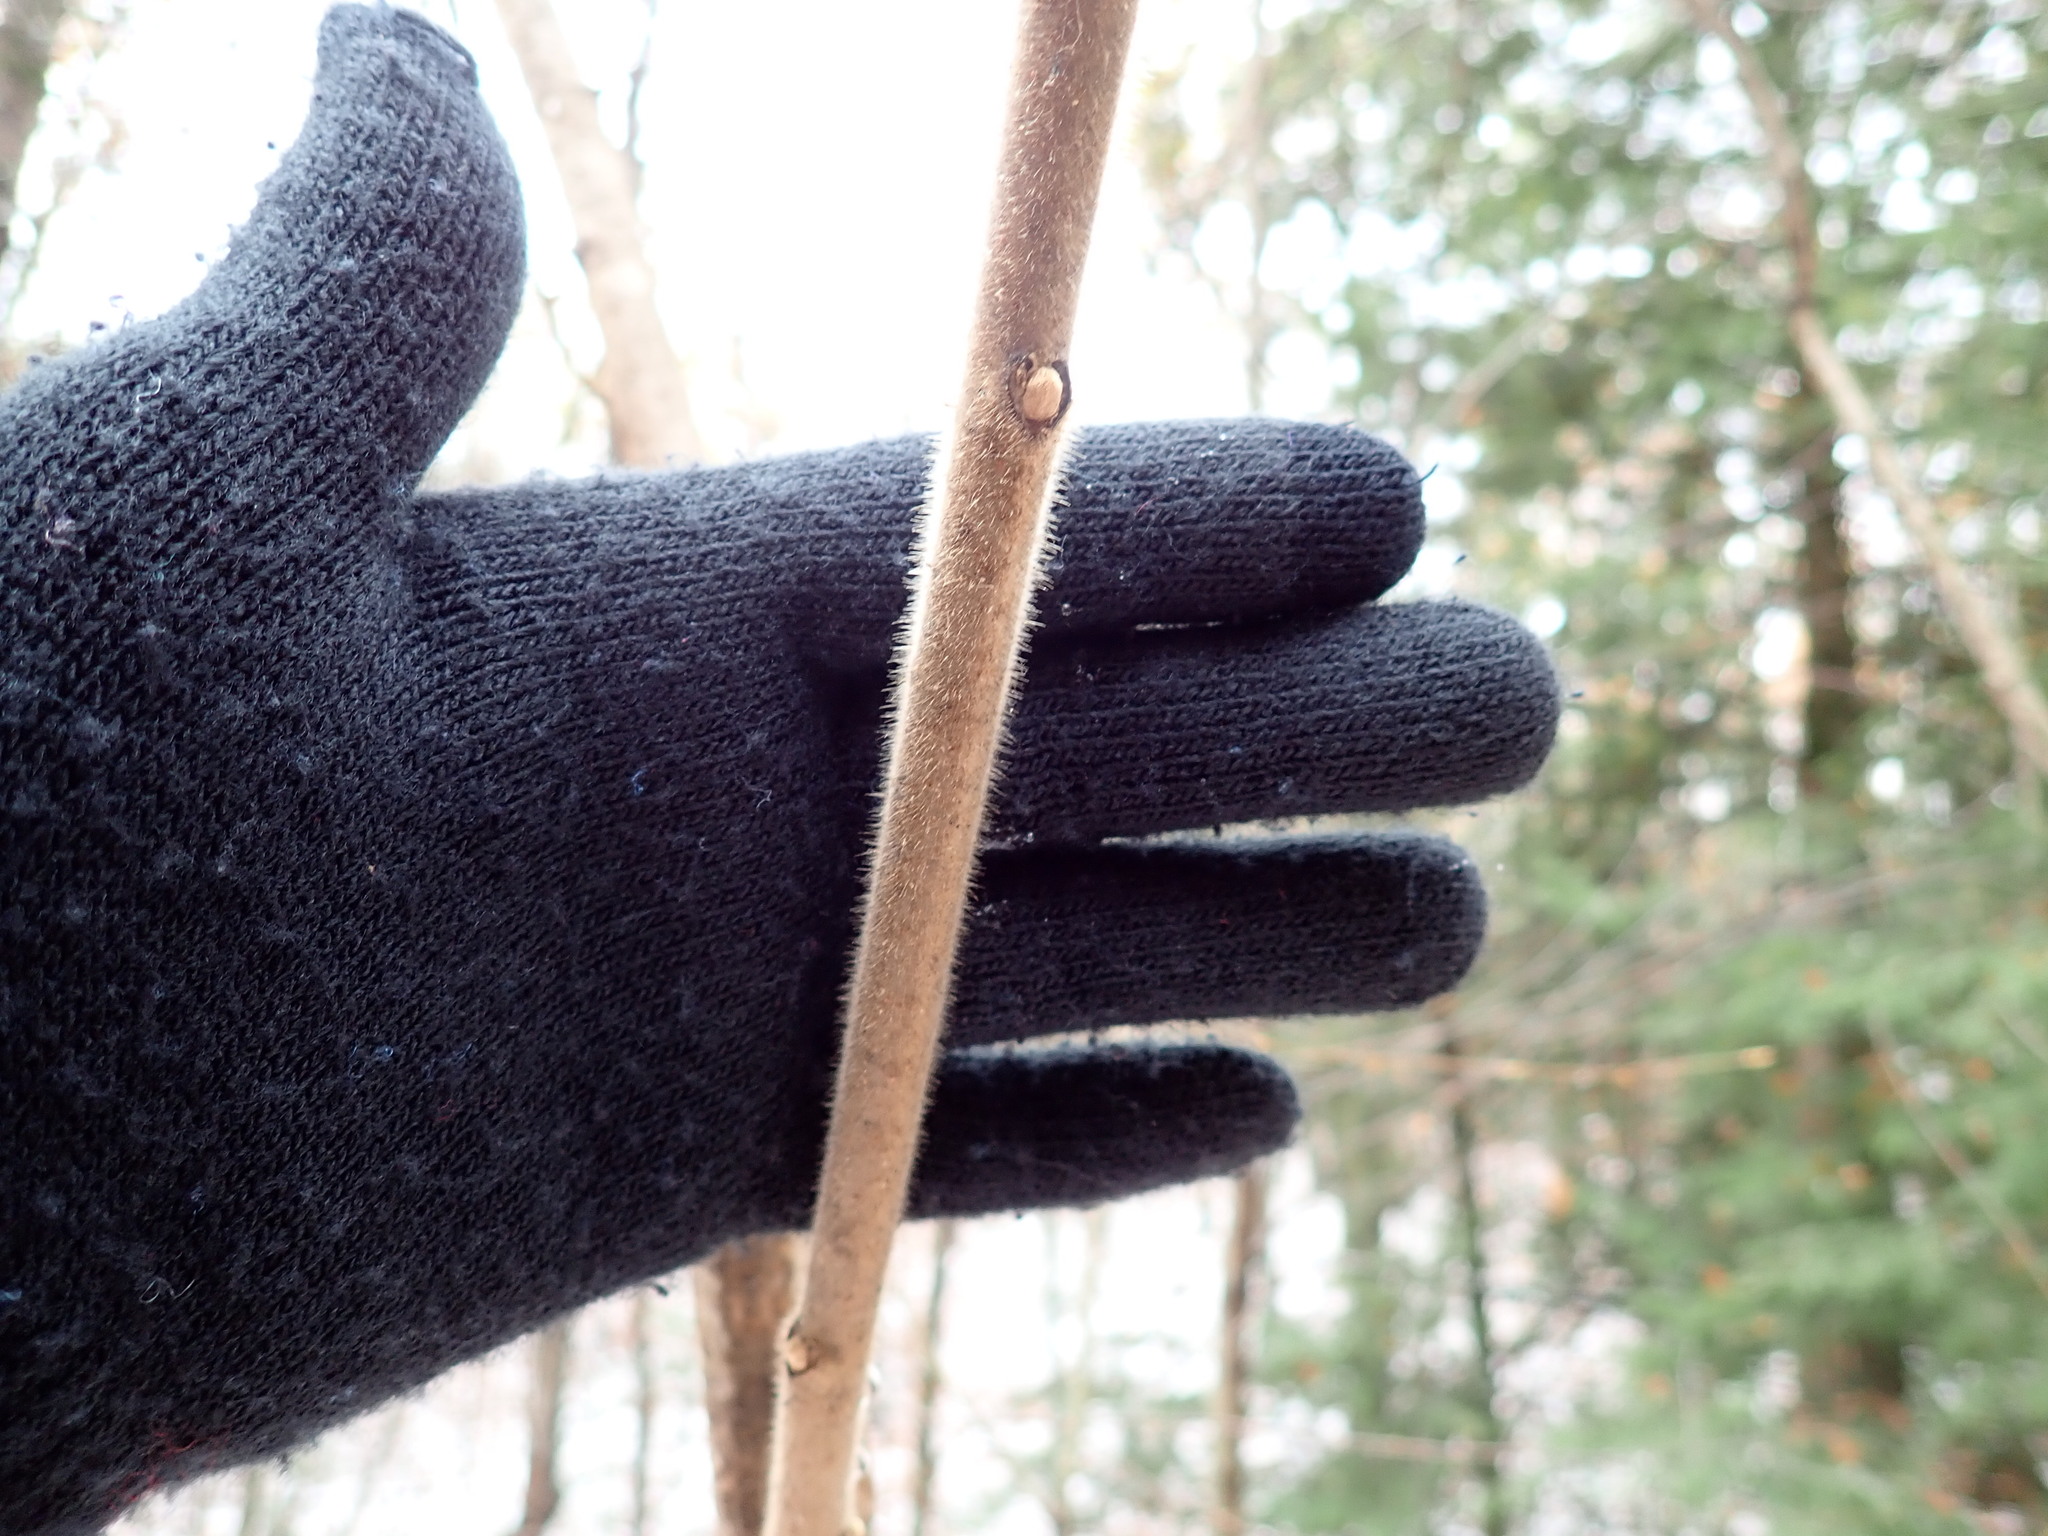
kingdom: Plantae
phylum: Tracheophyta
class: Magnoliopsida
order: Sapindales
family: Anacardiaceae
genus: Rhus
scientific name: Rhus typhina
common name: Staghorn sumac
